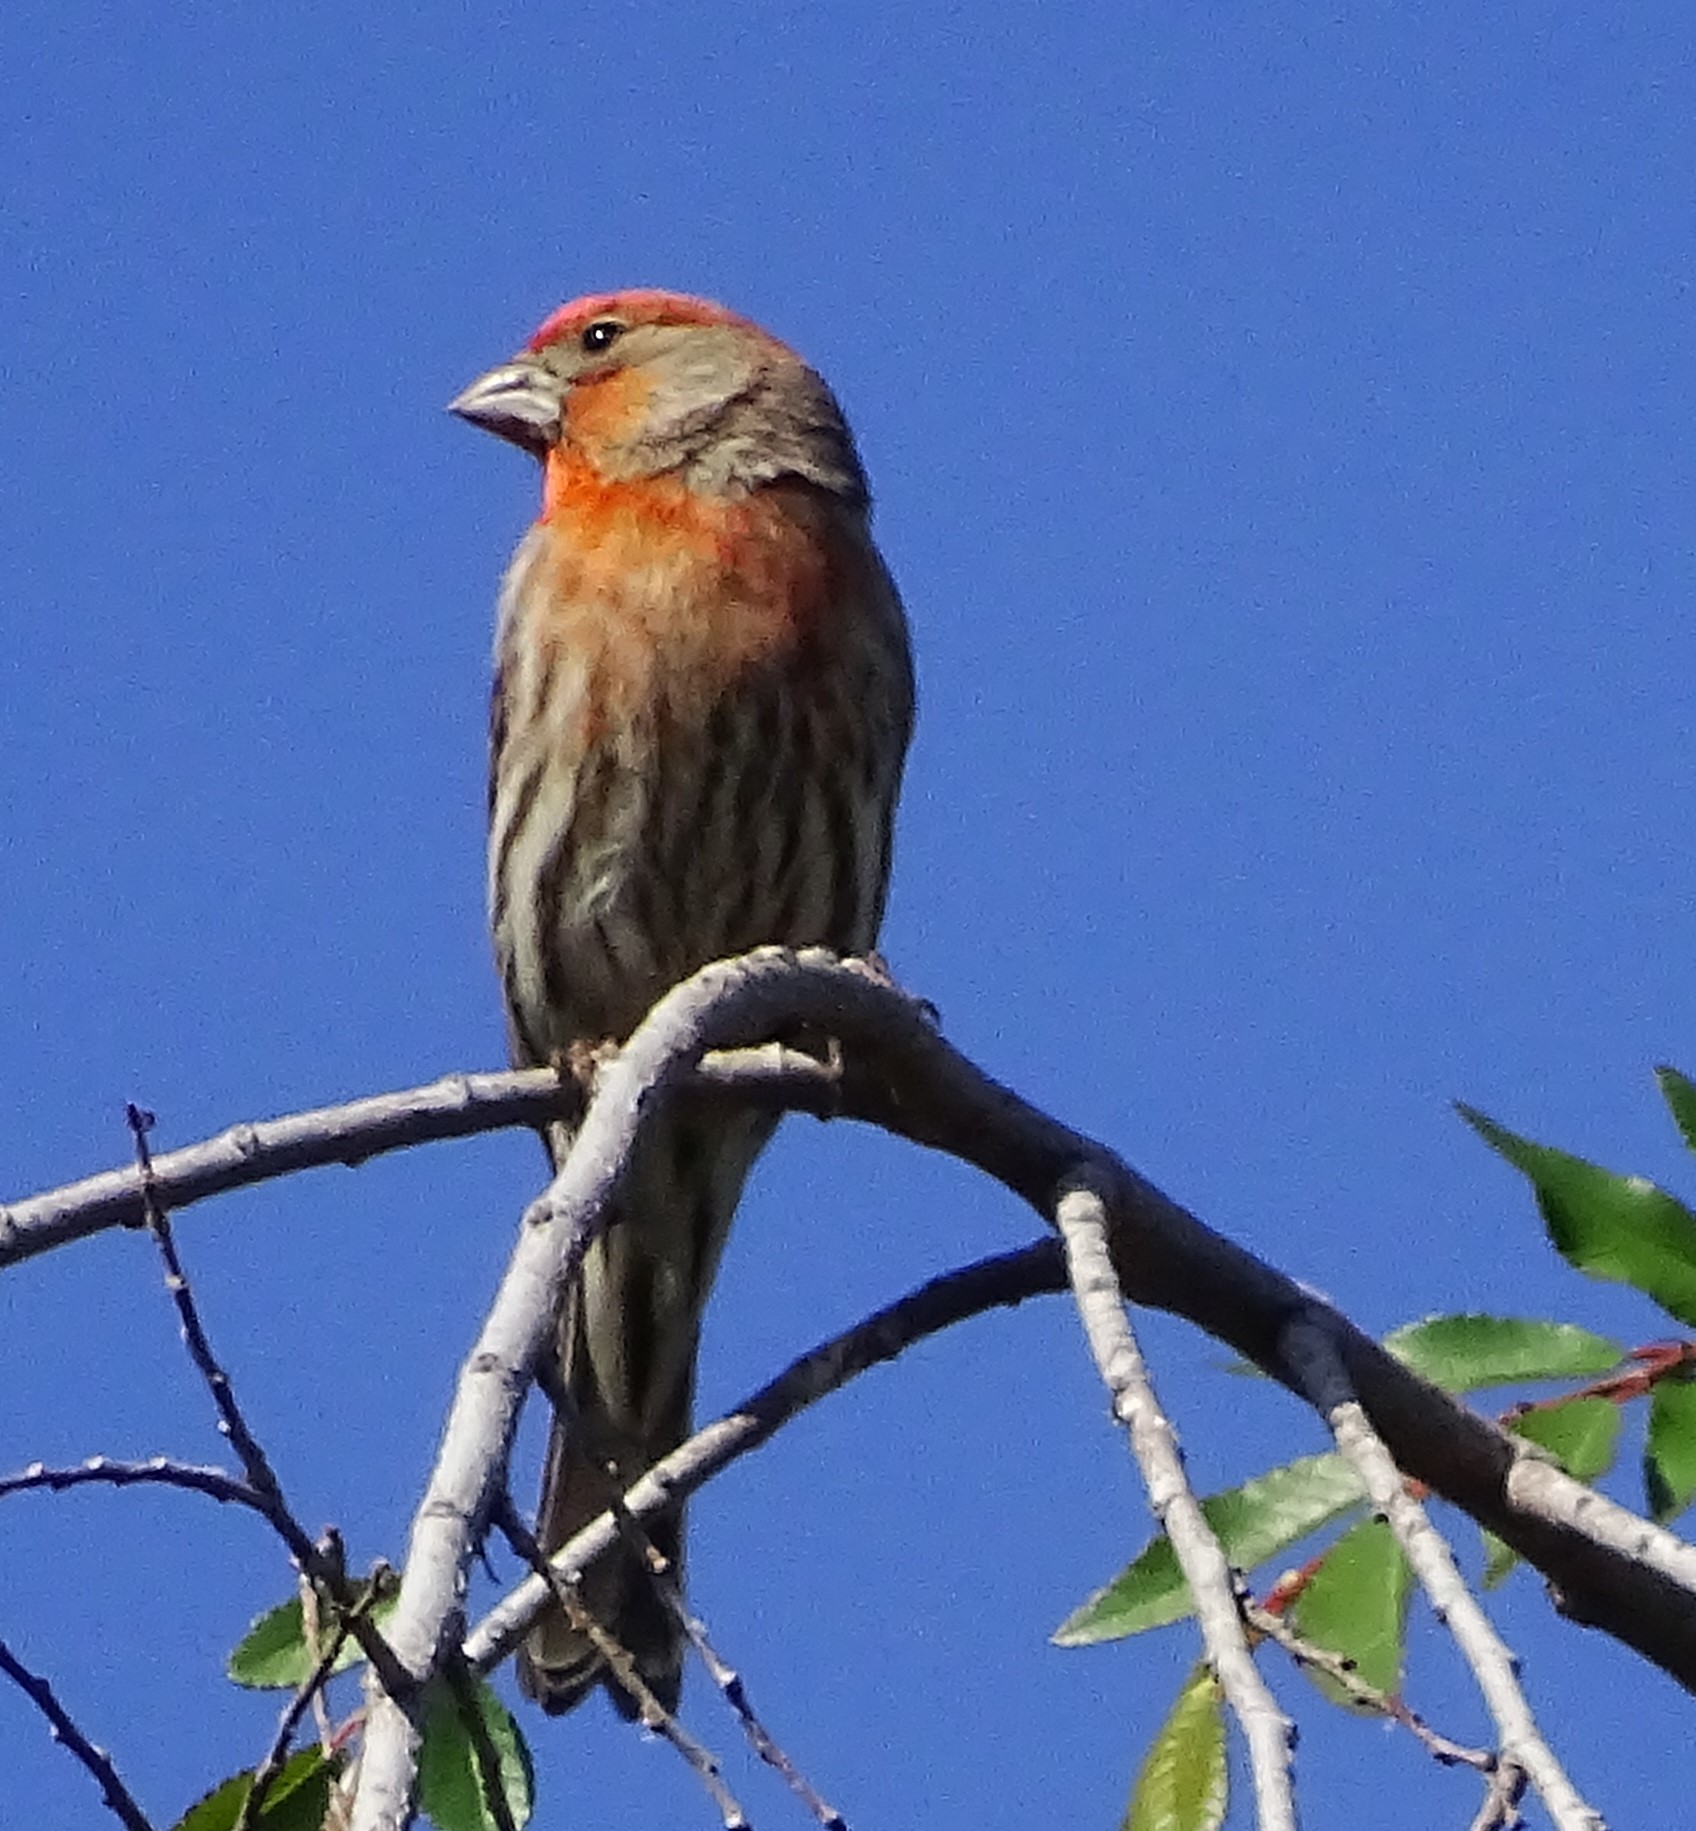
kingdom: Animalia
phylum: Chordata
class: Aves
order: Passeriformes
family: Fringillidae
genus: Haemorhous
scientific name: Haemorhous mexicanus
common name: House finch
